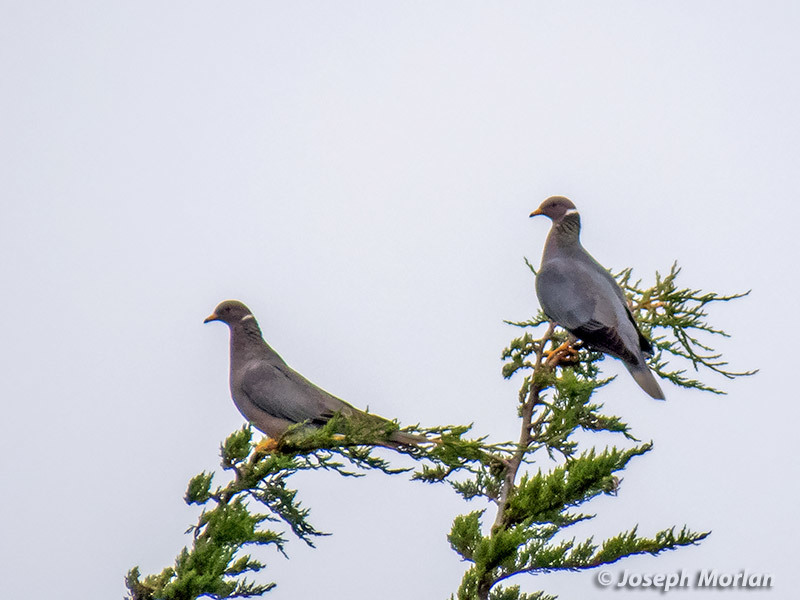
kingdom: Animalia
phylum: Chordata
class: Aves
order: Columbiformes
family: Columbidae
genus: Patagioenas
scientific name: Patagioenas fasciata
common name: Band-tailed pigeon
